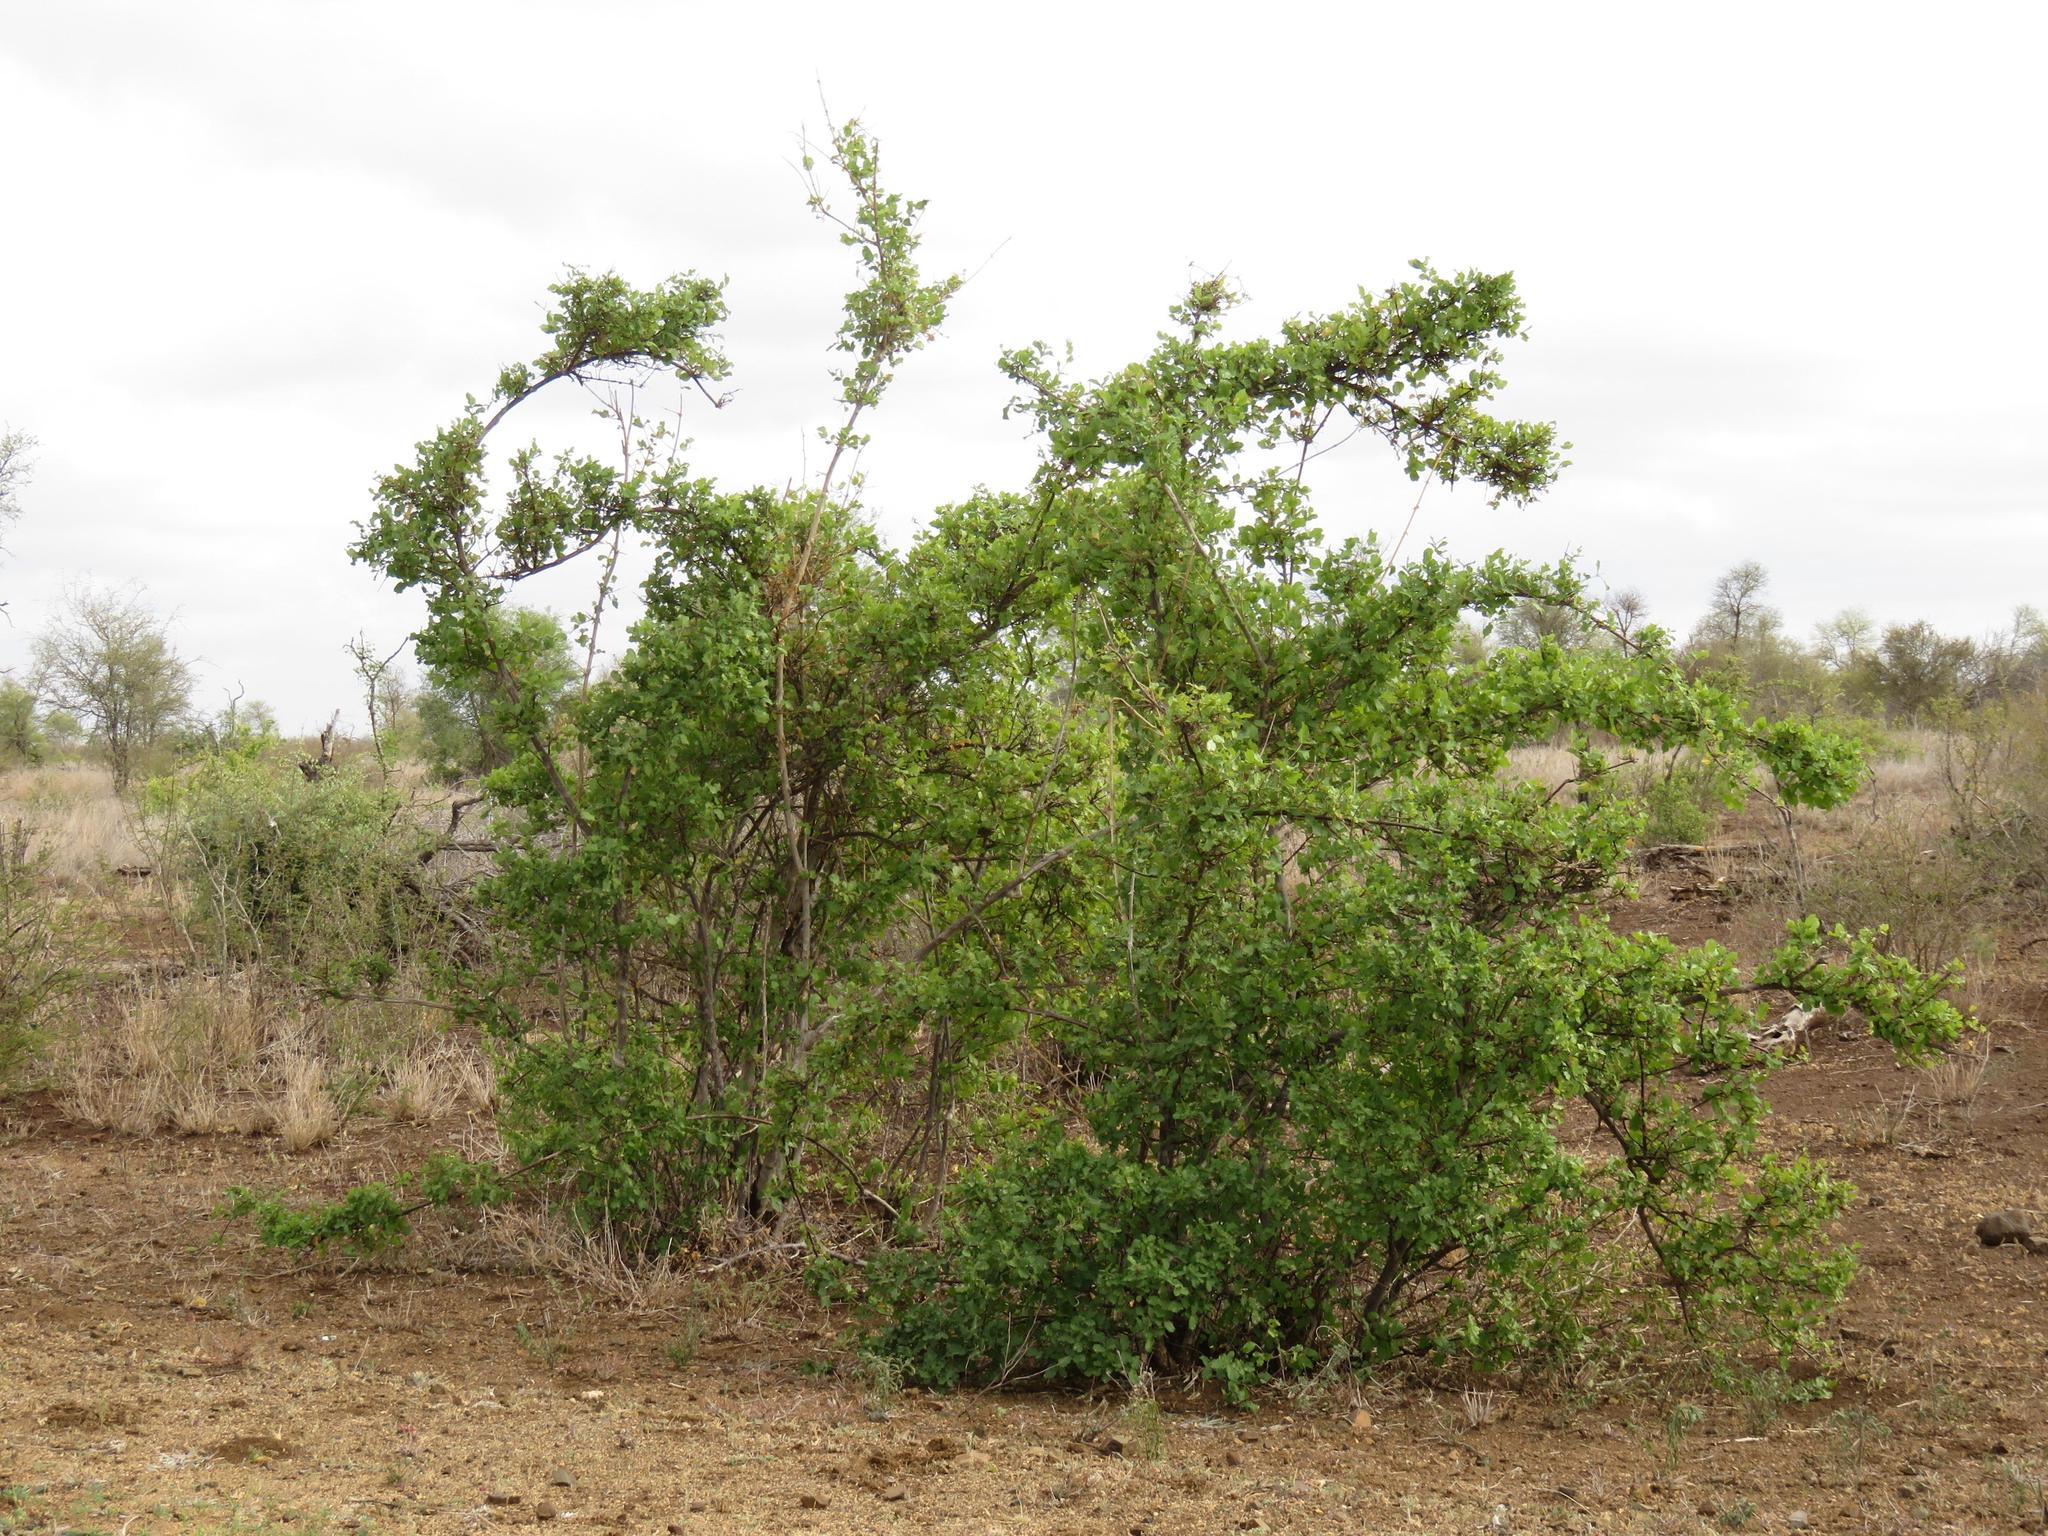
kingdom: Plantae
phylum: Tracheophyta
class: Magnoliopsida
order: Myrtales
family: Combretaceae
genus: Combretum
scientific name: Combretum mossambicense
